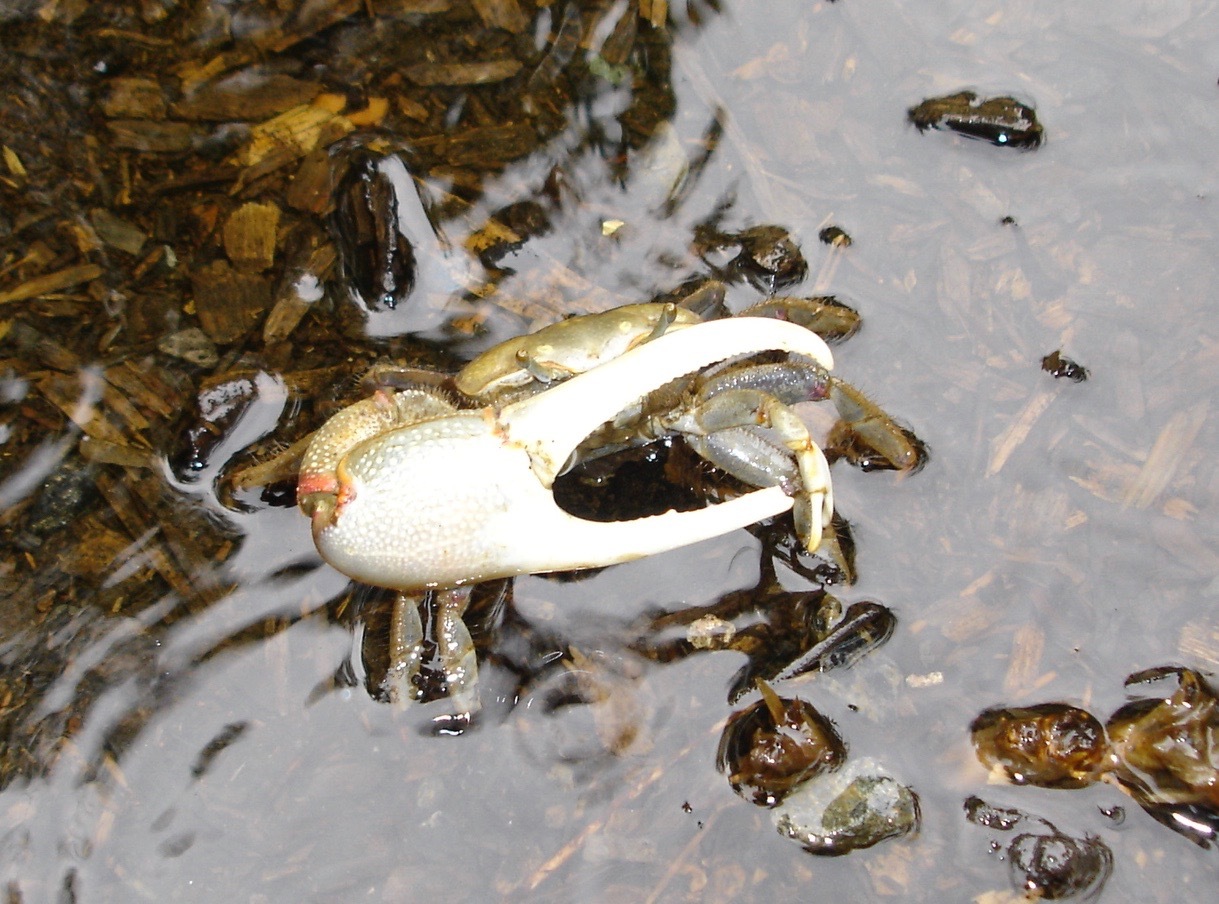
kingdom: Animalia
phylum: Arthropoda
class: Malacostraca
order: Decapoda
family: Ocypodidae
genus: Minuca
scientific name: Minuca minax
